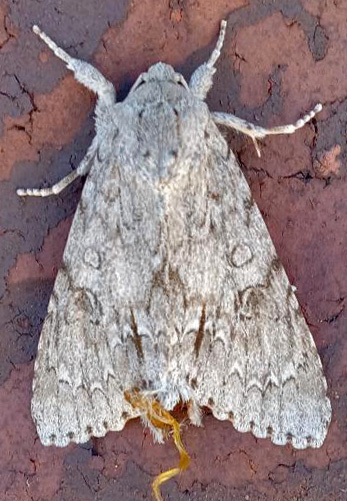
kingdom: Animalia
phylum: Arthropoda
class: Insecta
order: Lepidoptera
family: Noctuidae
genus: Acronicta
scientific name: Acronicta americana
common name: American dagger
